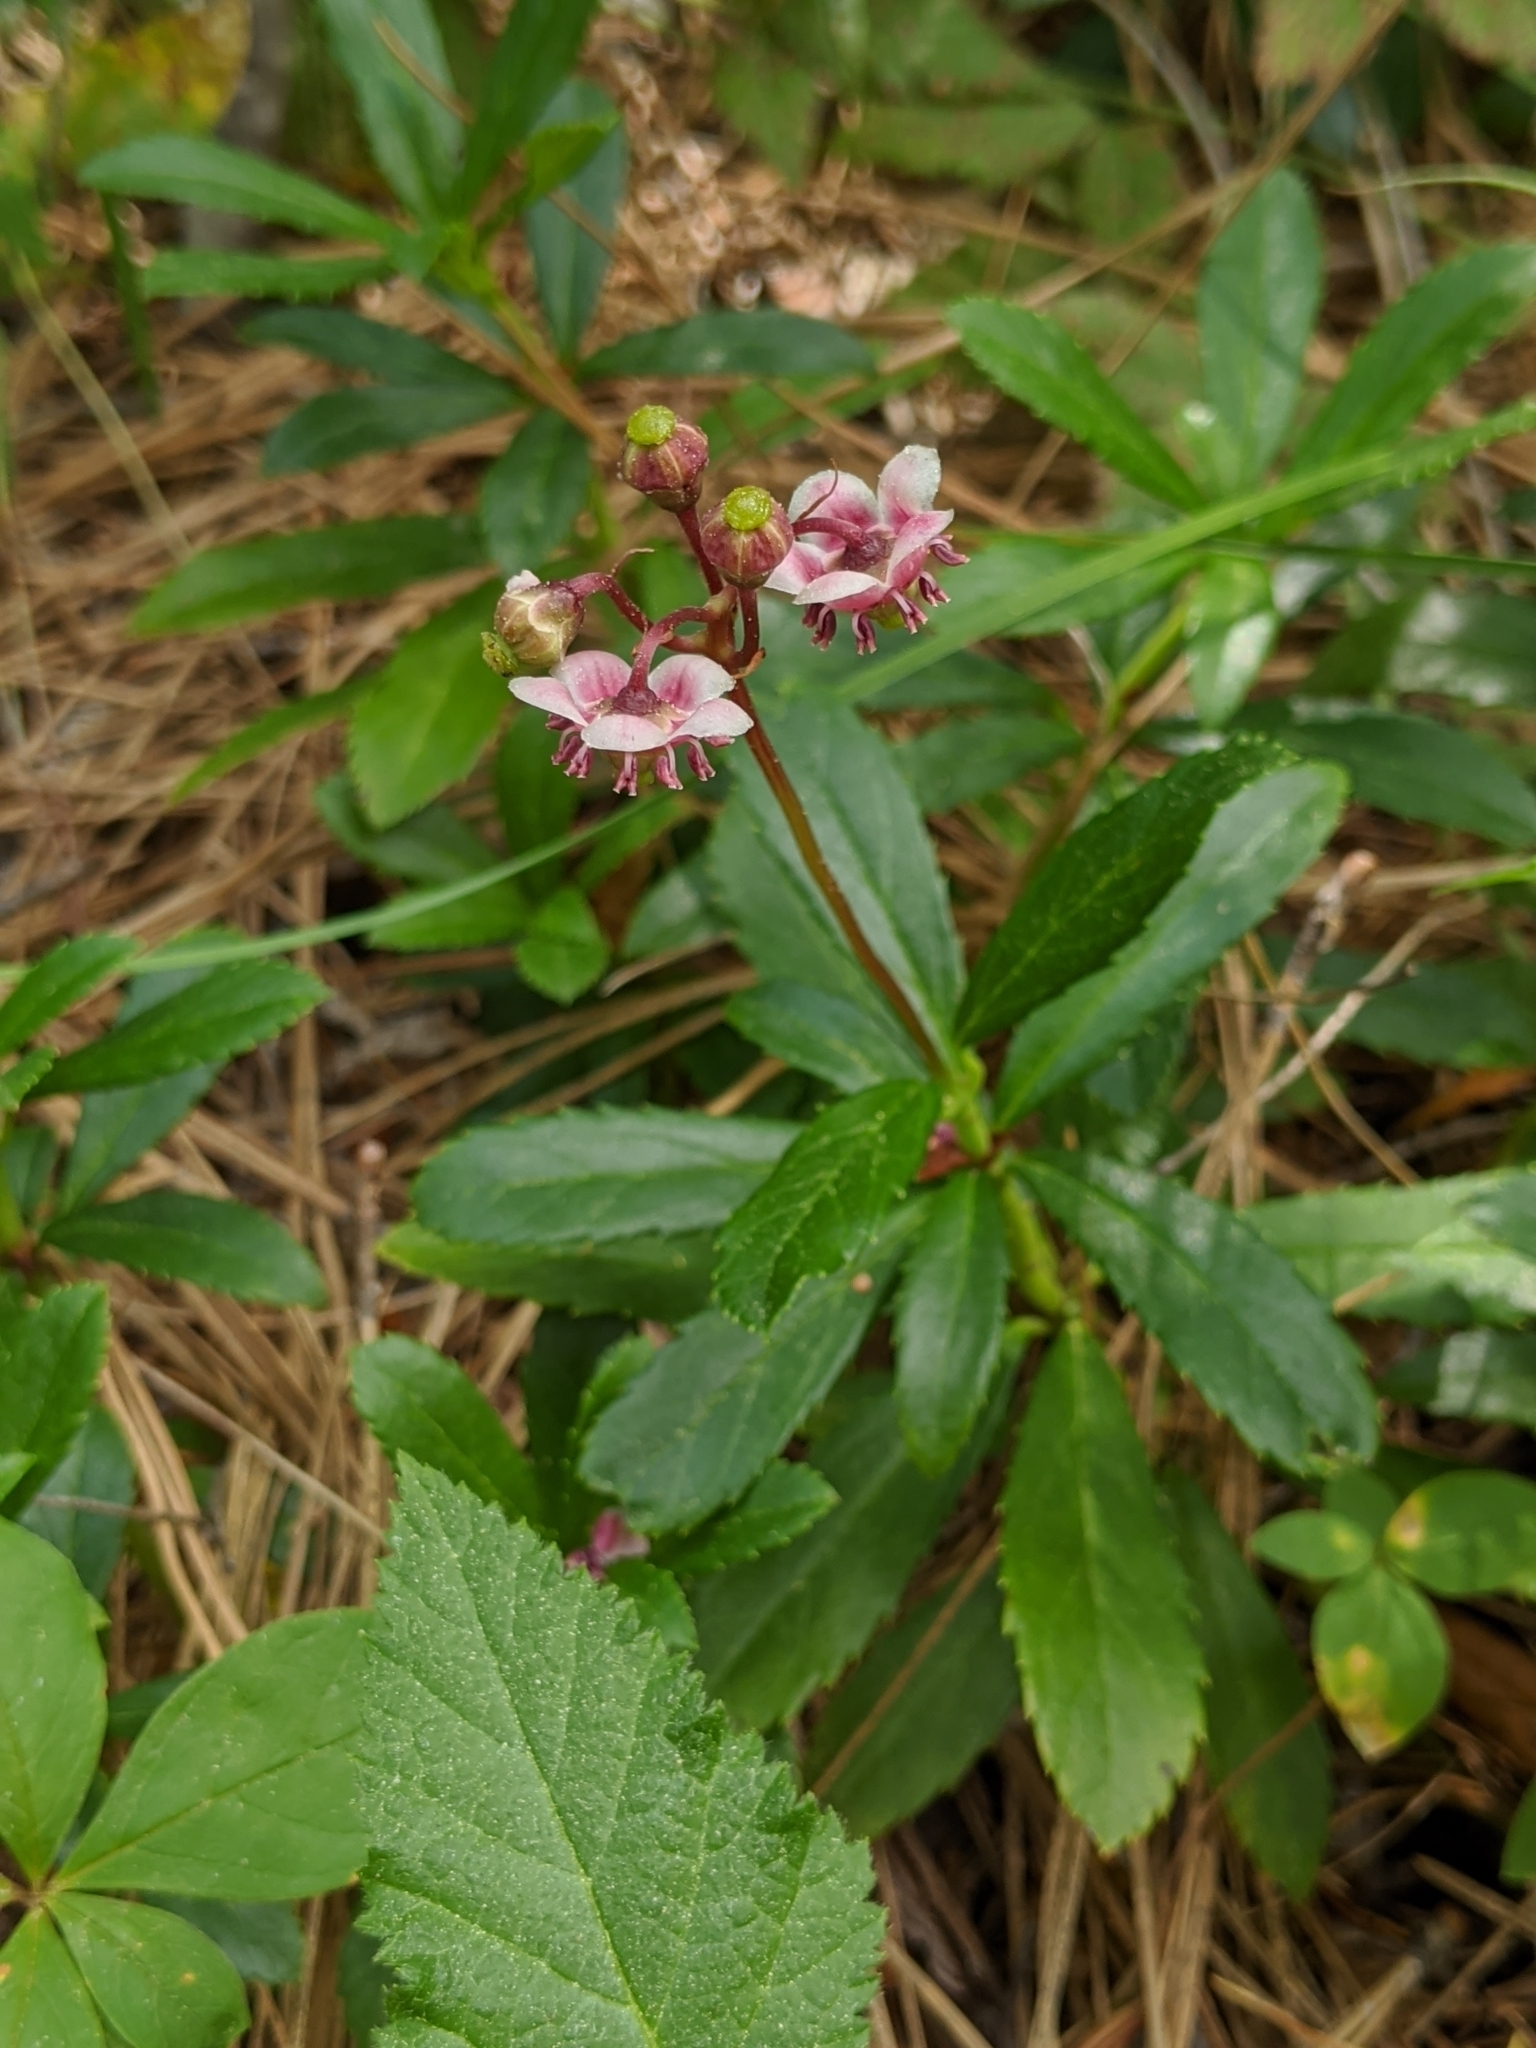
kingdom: Plantae
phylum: Tracheophyta
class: Magnoliopsida
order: Ericales
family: Ericaceae
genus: Chimaphila
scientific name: Chimaphila umbellata
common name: Pipsissewa
